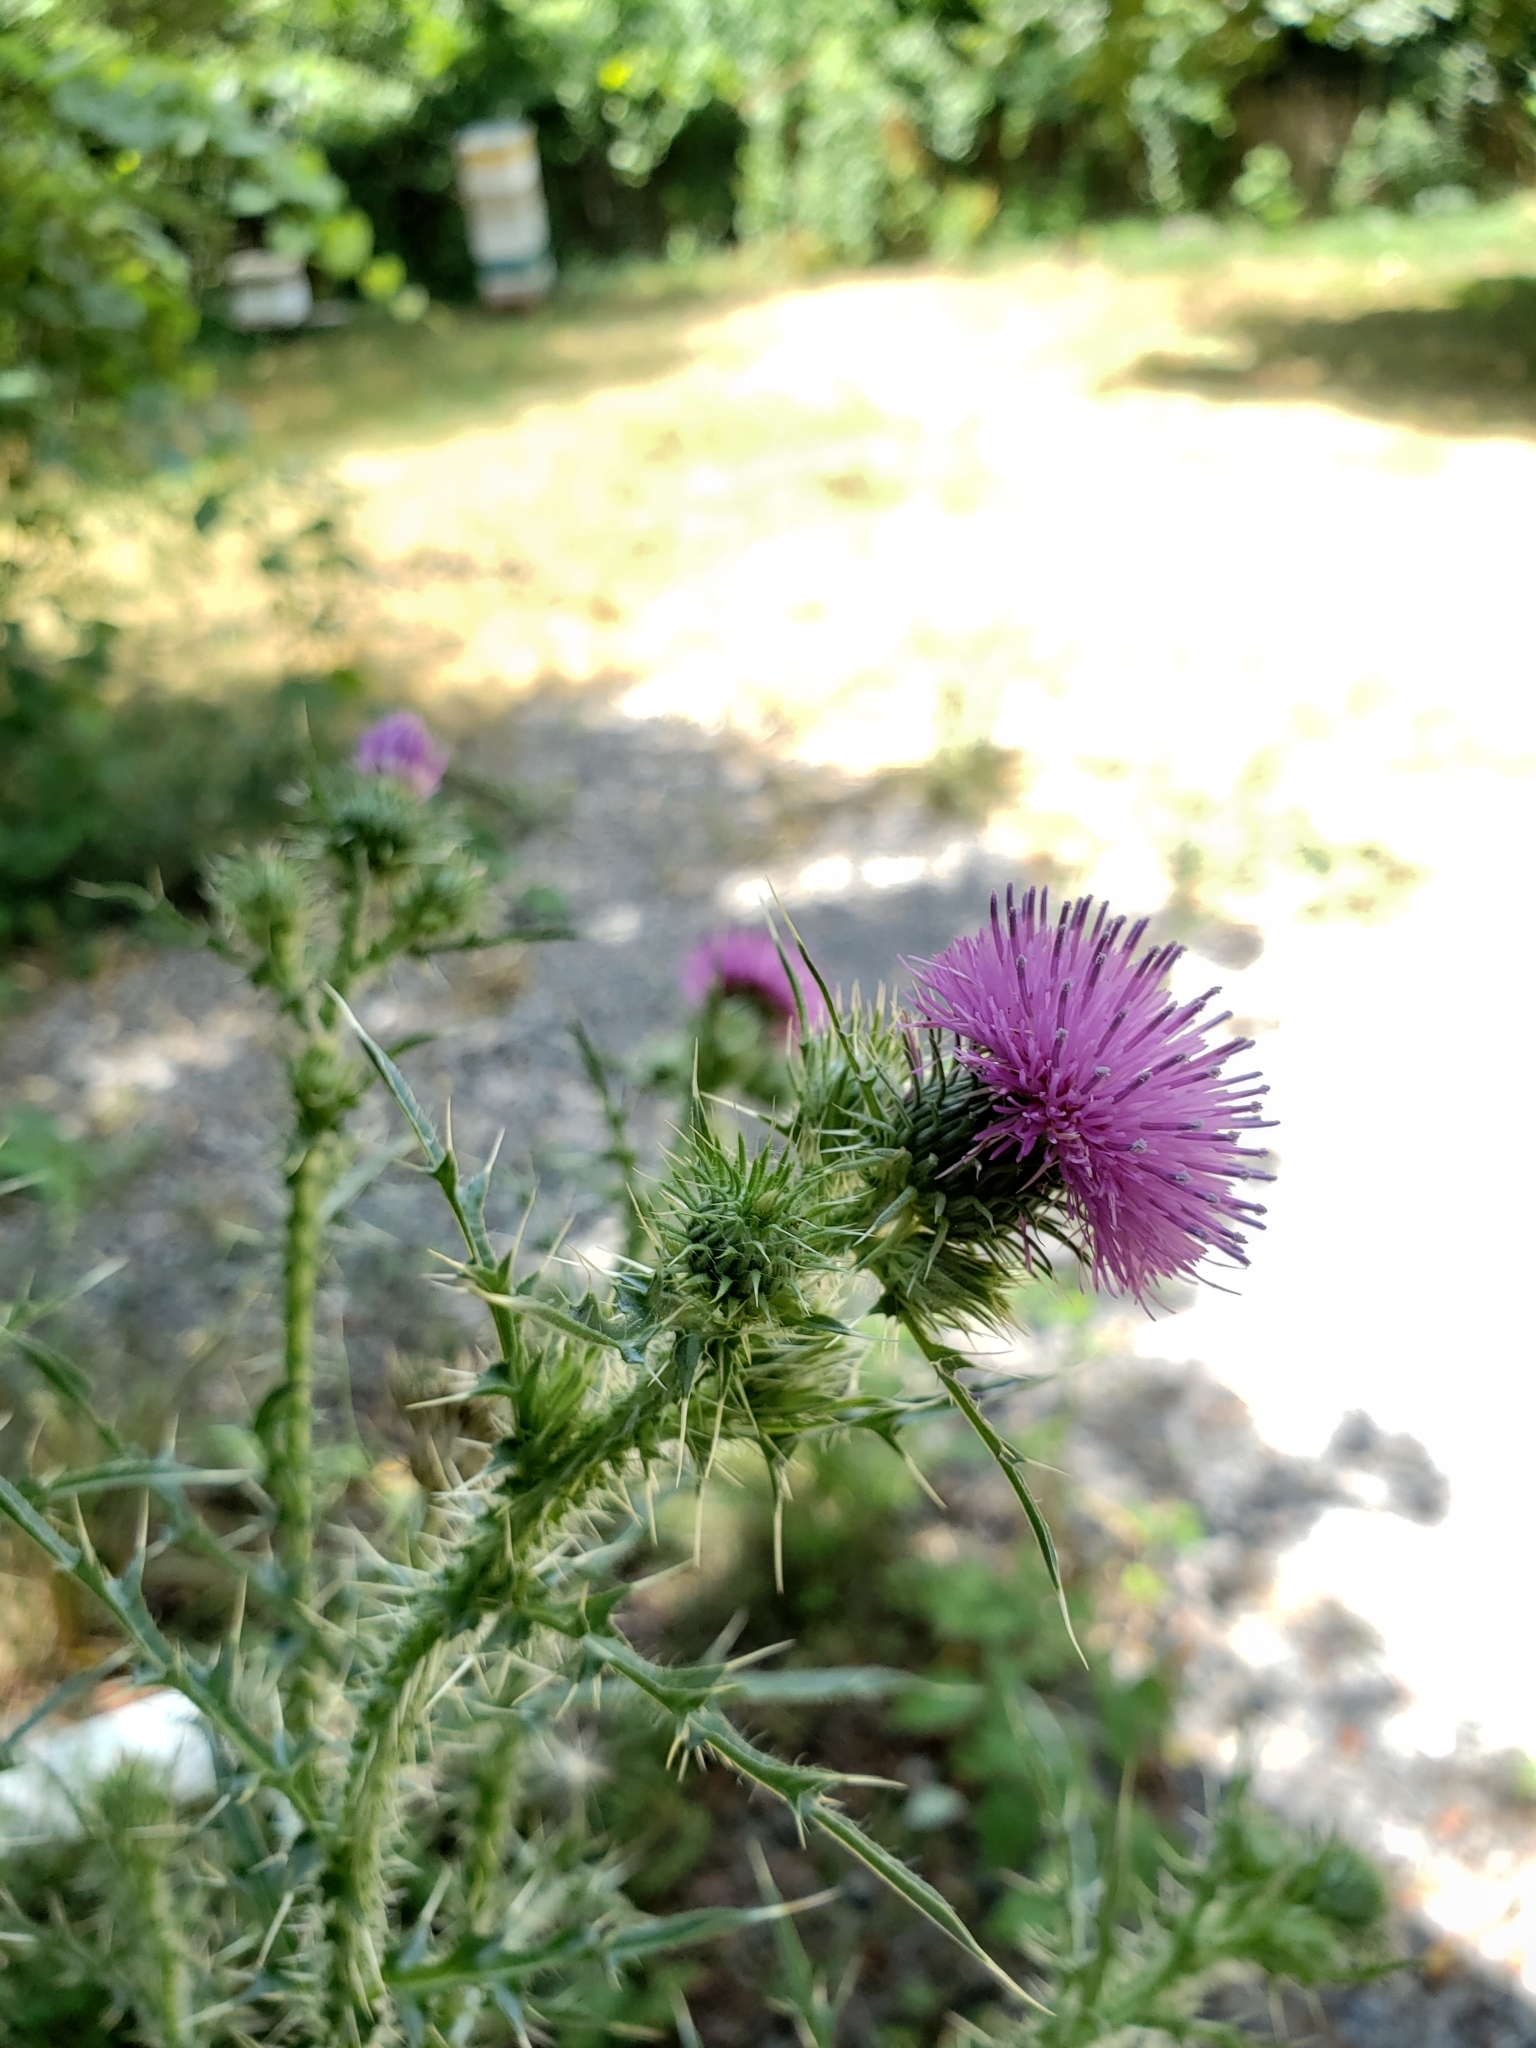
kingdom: Plantae
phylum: Tracheophyta
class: Magnoliopsida
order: Asterales
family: Asteraceae
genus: Carduus
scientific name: Carduus acanthoides
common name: Plumeless thistle
